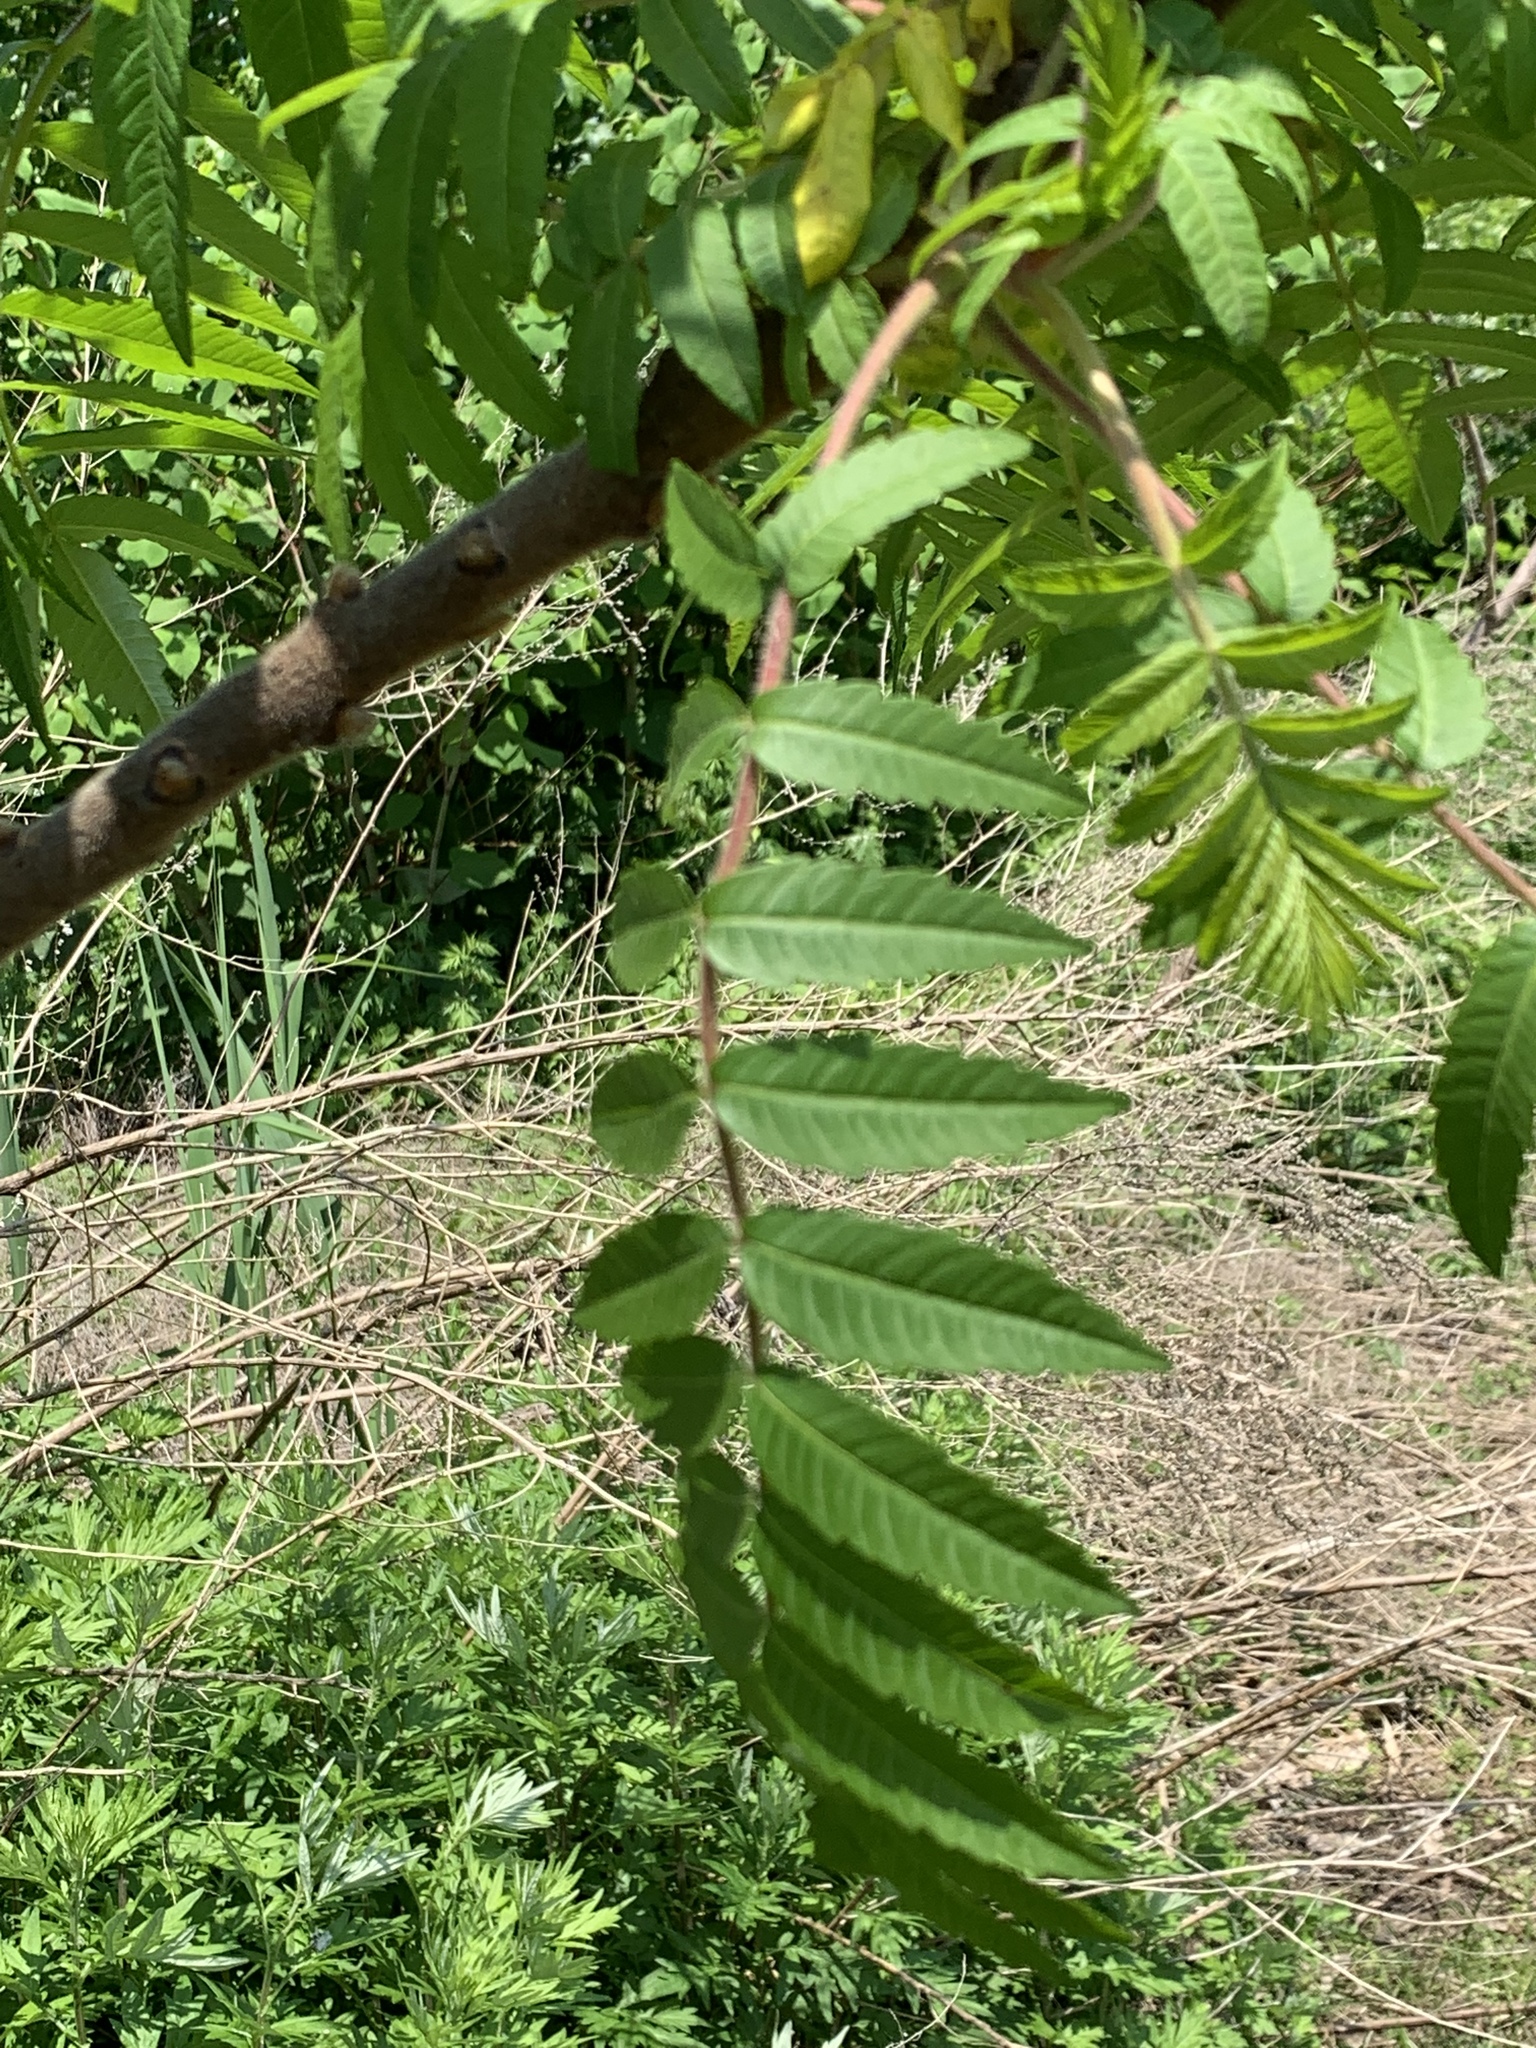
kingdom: Plantae
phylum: Tracheophyta
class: Magnoliopsida
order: Sapindales
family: Anacardiaceae
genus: Rhus
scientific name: Rhus typhina
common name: Staghorn sumac
